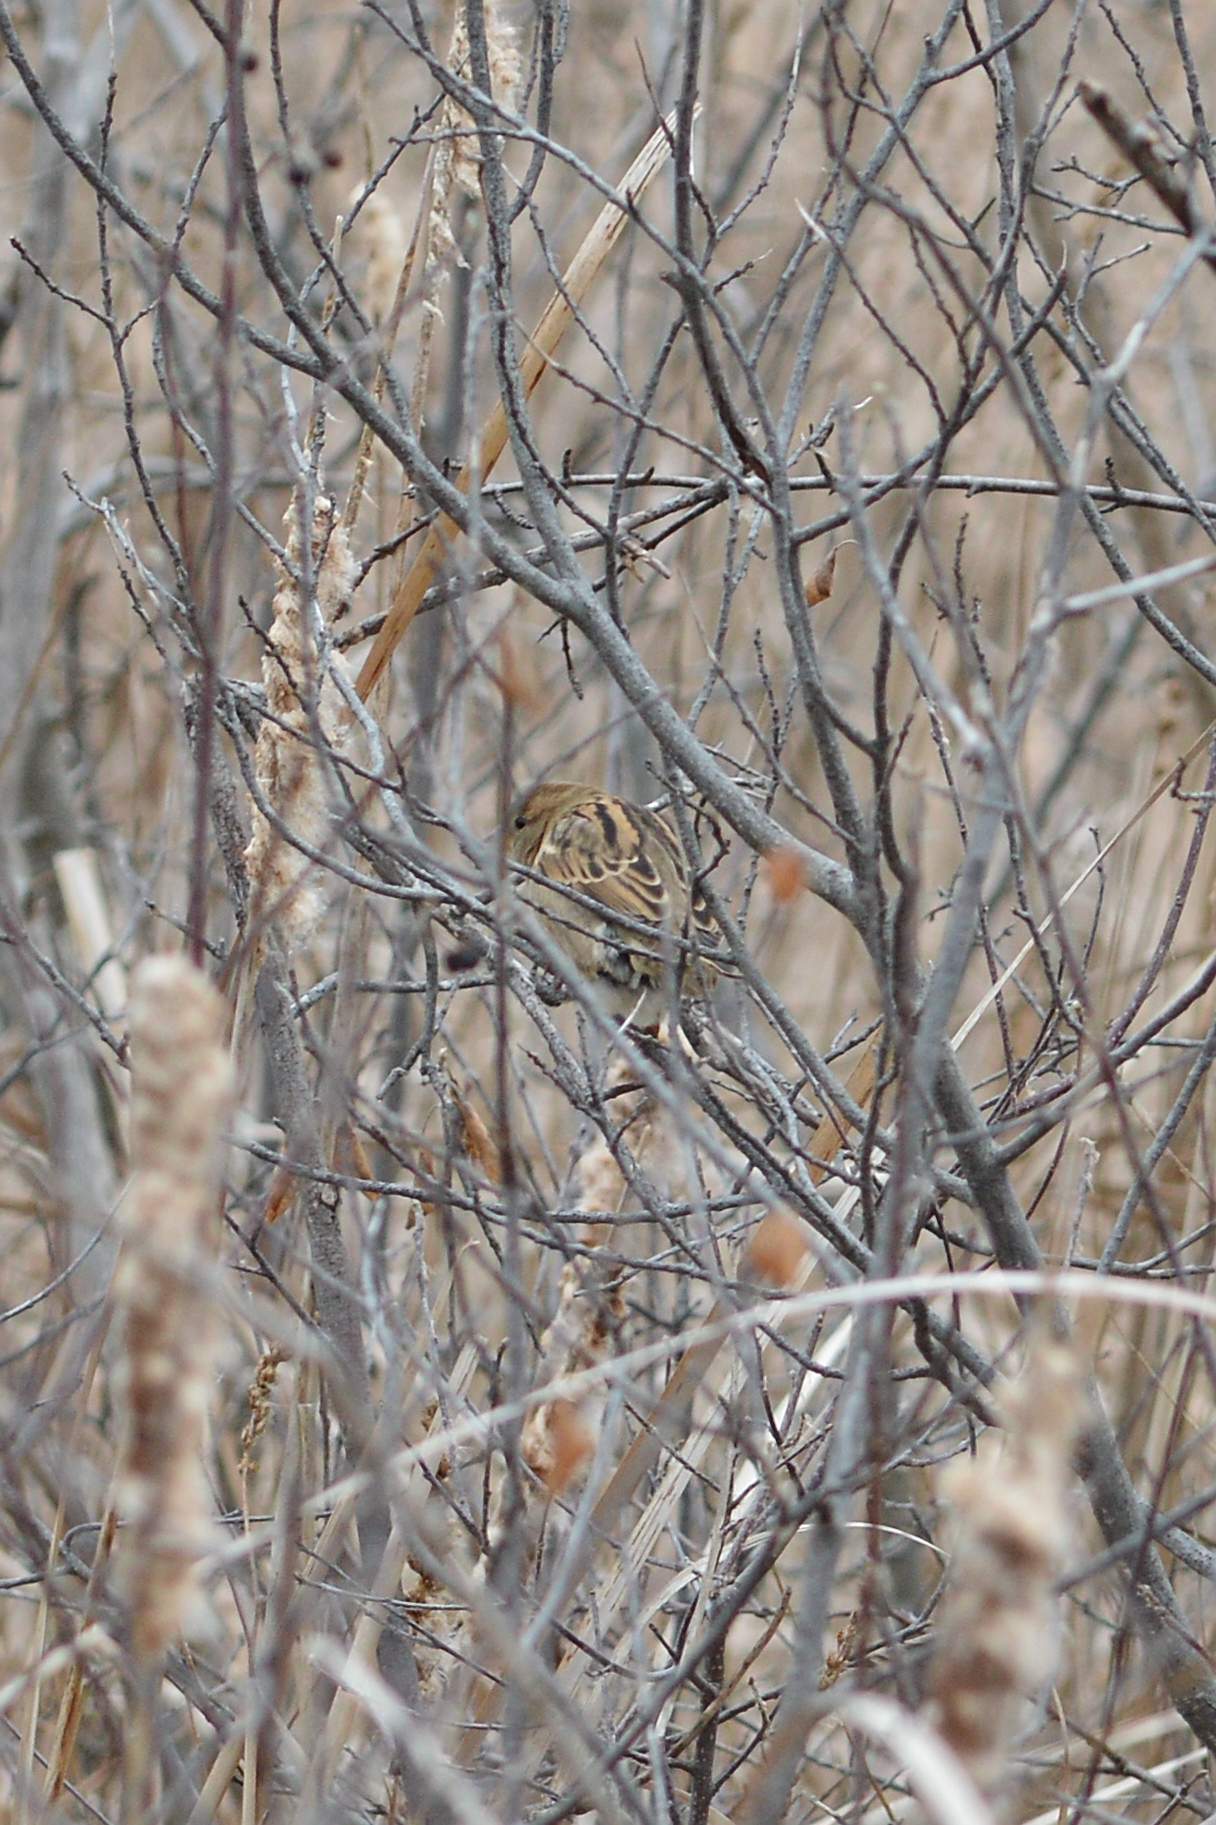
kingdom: Animalia
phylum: Chordata
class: Aves
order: Passeriformes
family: Passeridae
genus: Passer
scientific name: Passer domesticus
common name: House sparrow
